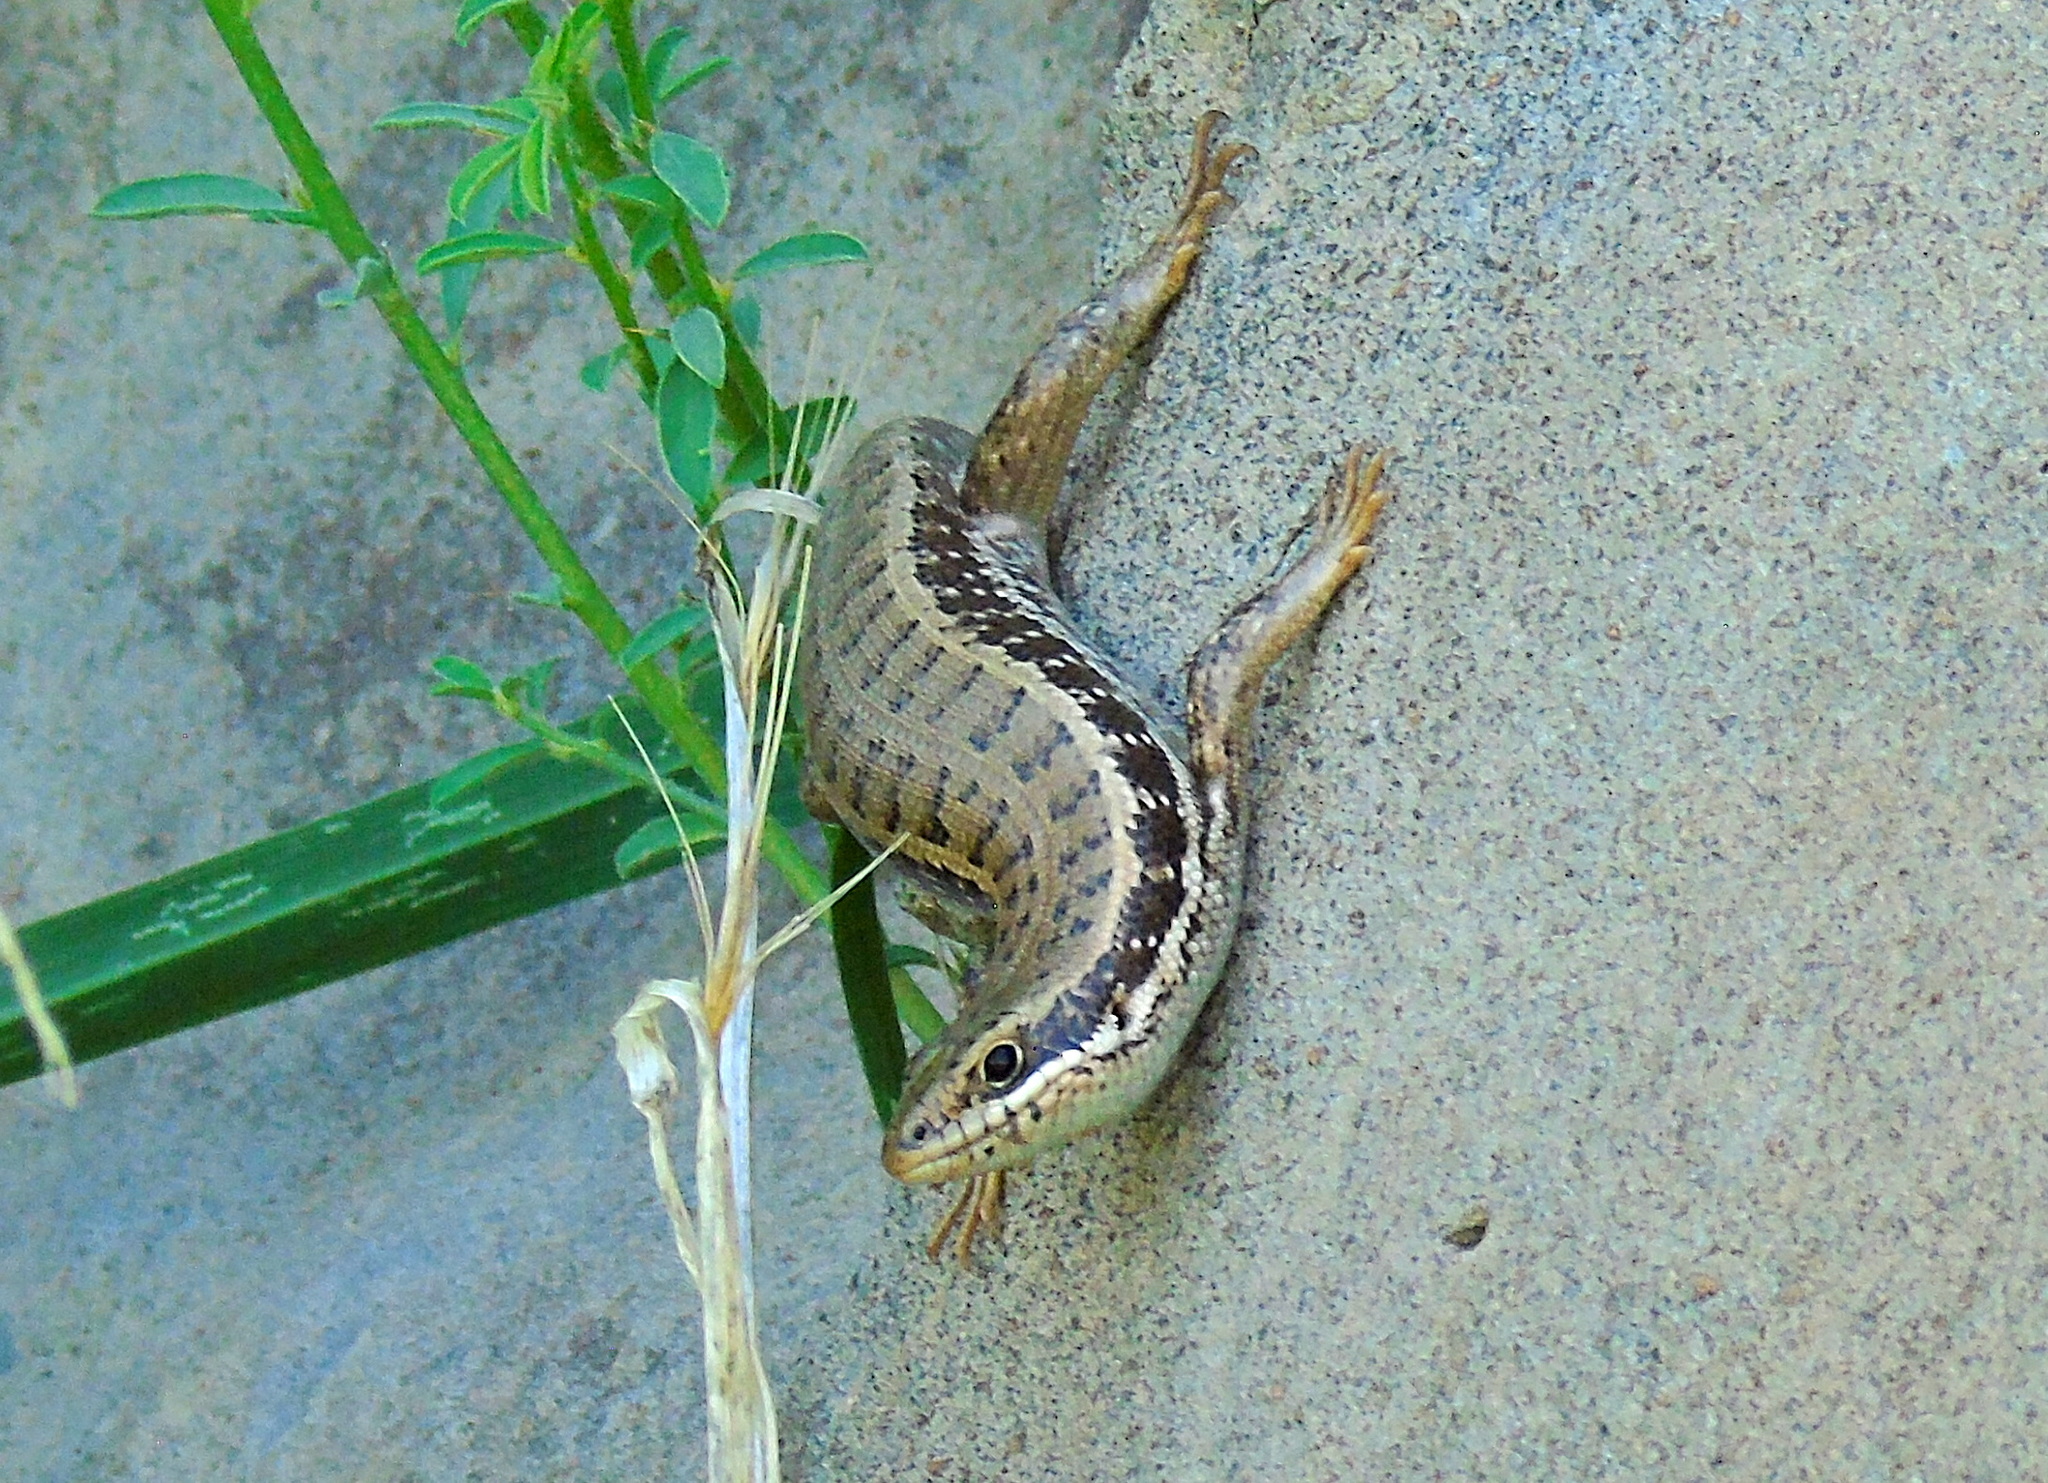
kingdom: Animalia
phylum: Chordata
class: Squamata
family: Scincidae
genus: Heremites
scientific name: Heremites auratus
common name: Golden grass mabuya
